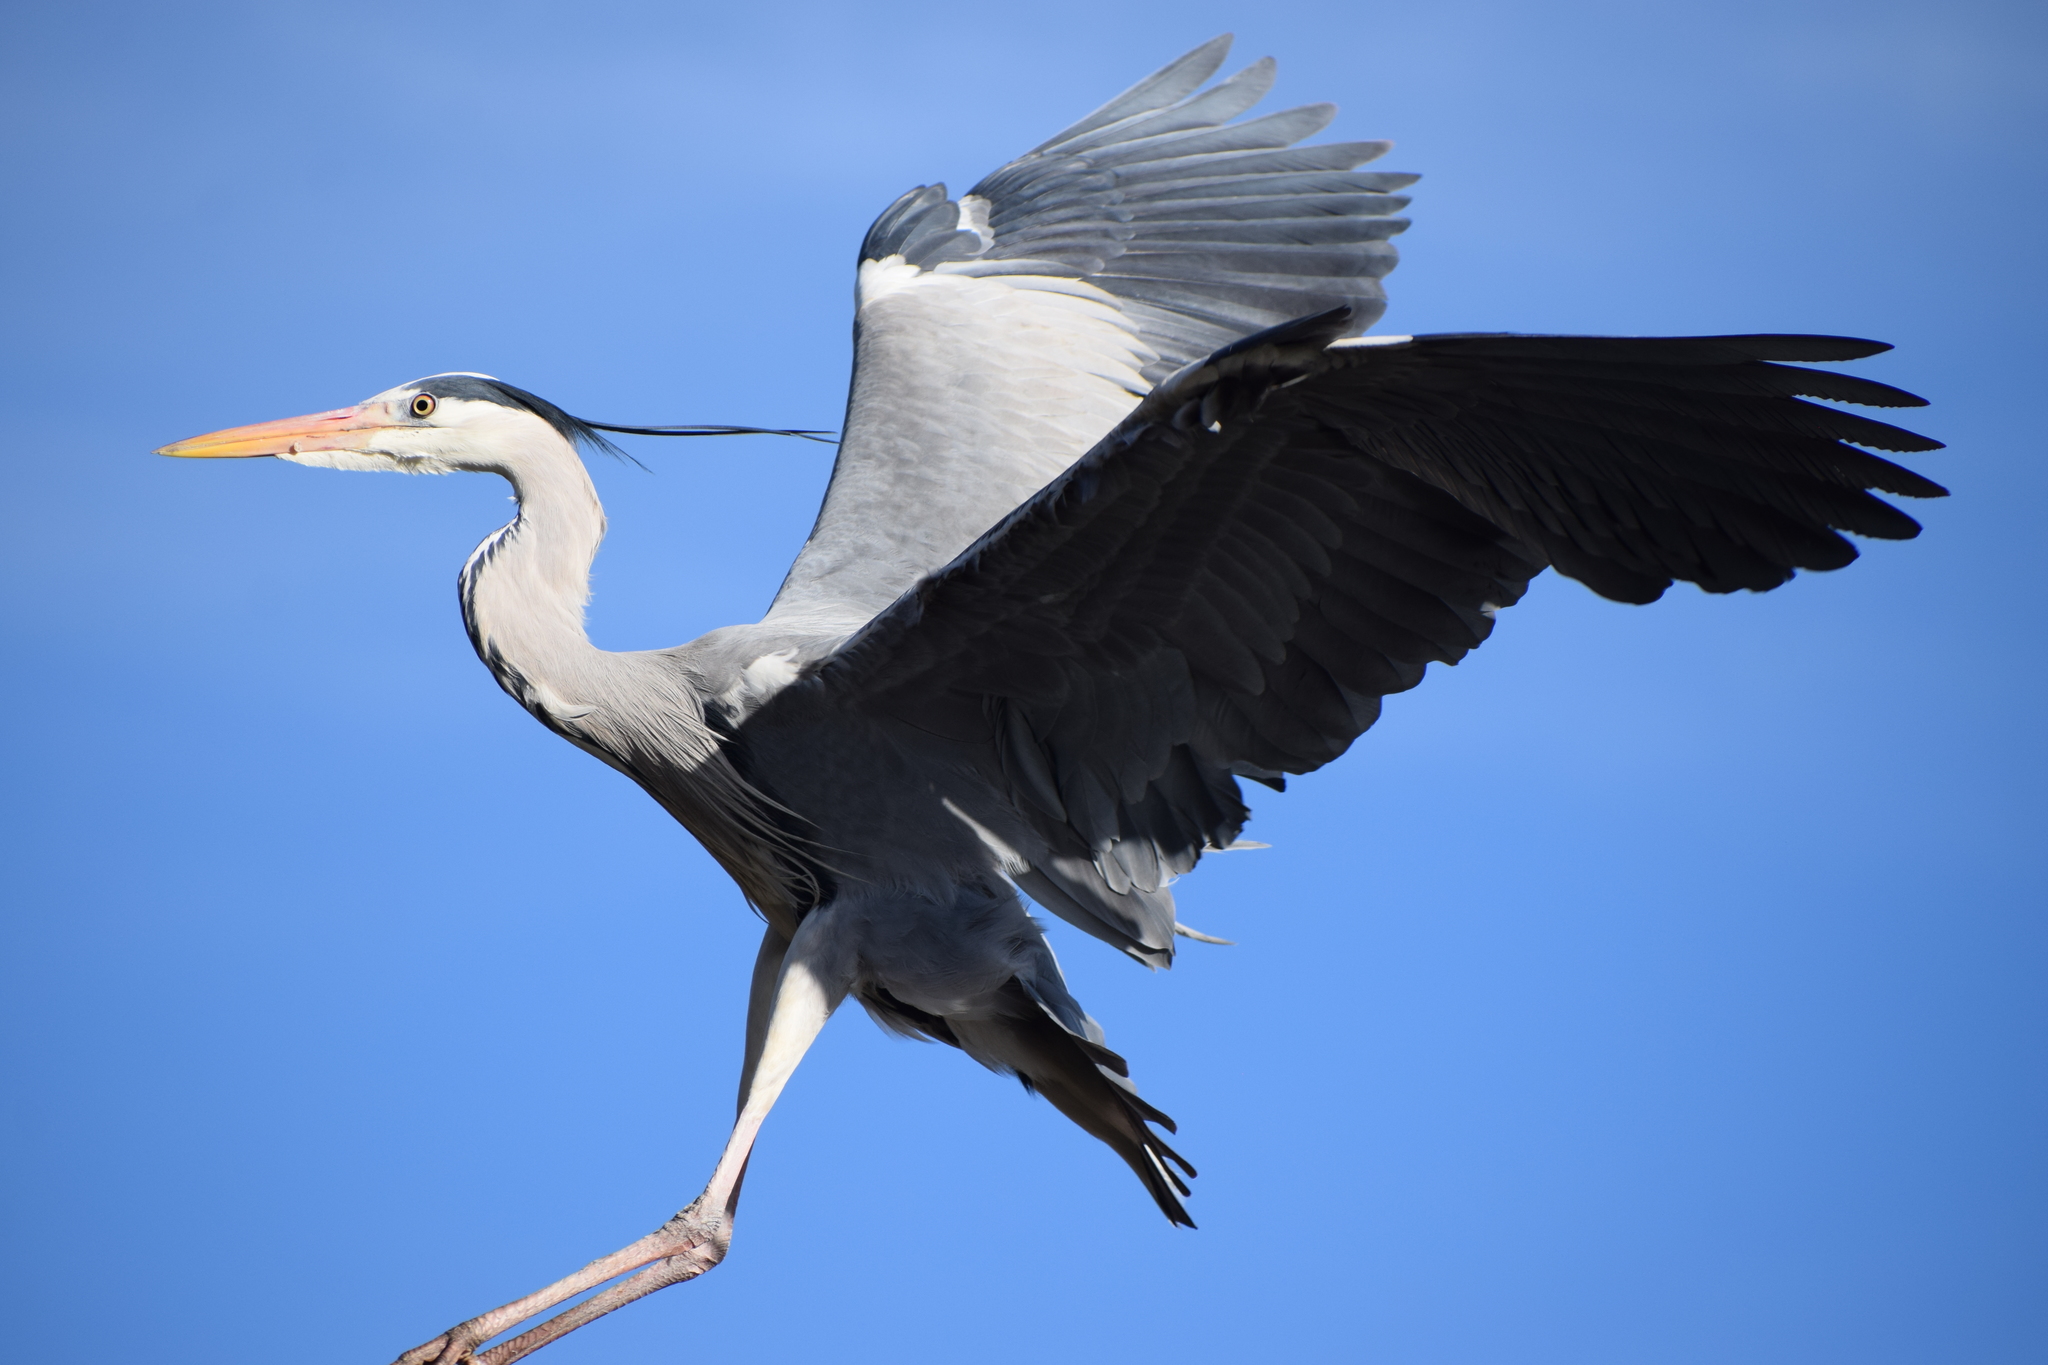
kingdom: Animalia
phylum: Chordata
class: Aves
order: Pelecaniformes
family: Ardeidae
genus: Ardea
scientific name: Ardea cinerea
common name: Grey heron
